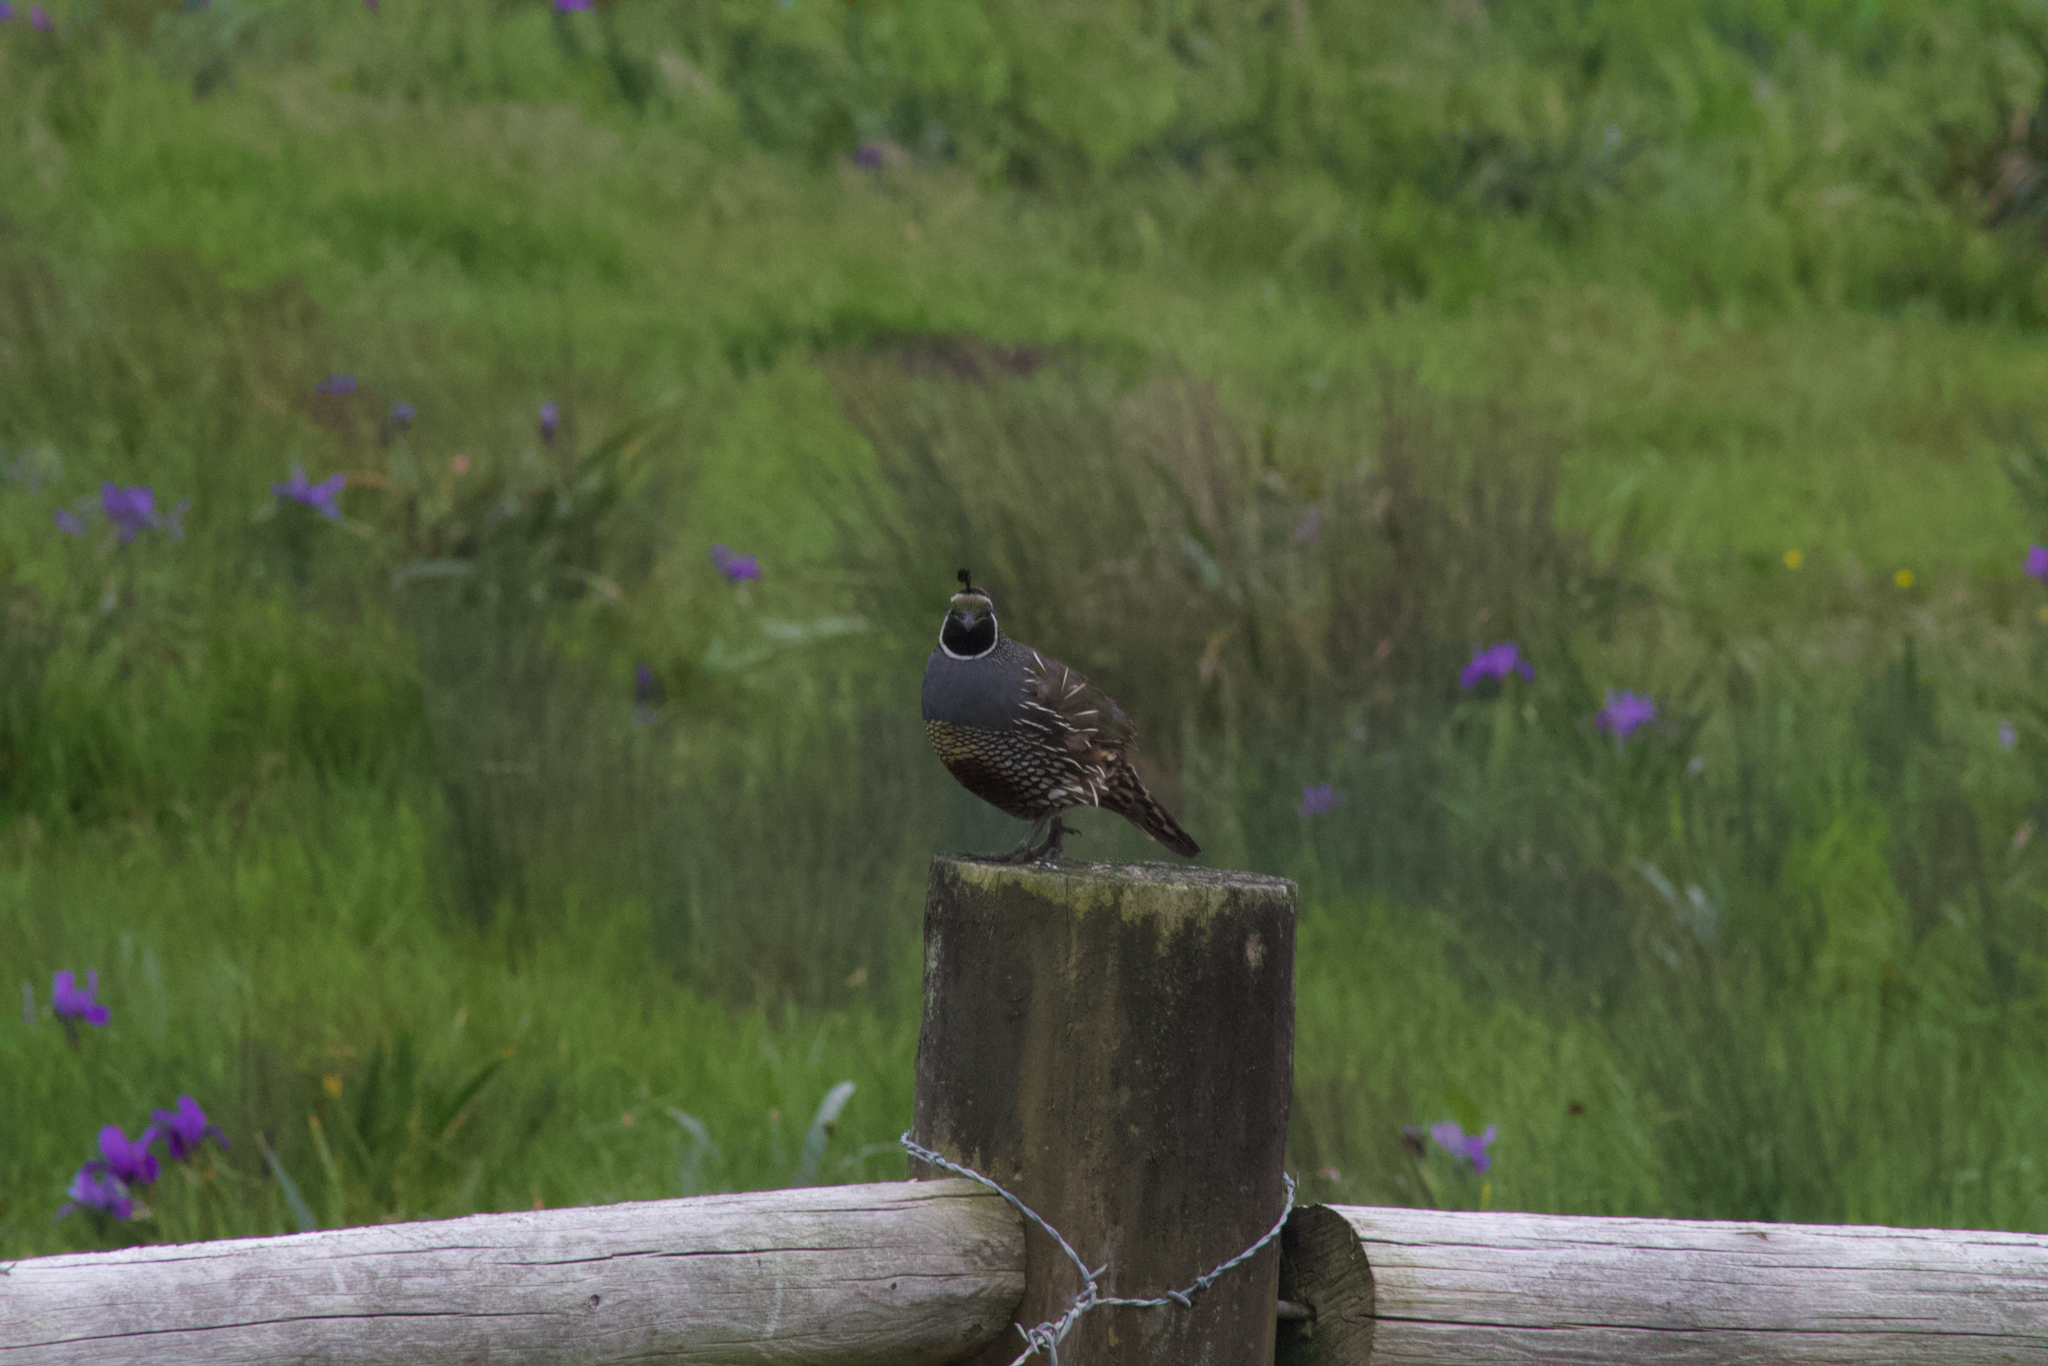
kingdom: Animalia
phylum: Chordata
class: Aves
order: Galliformes
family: Odontophoridae
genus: Callipepla
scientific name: Callipepla californica
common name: California quail
